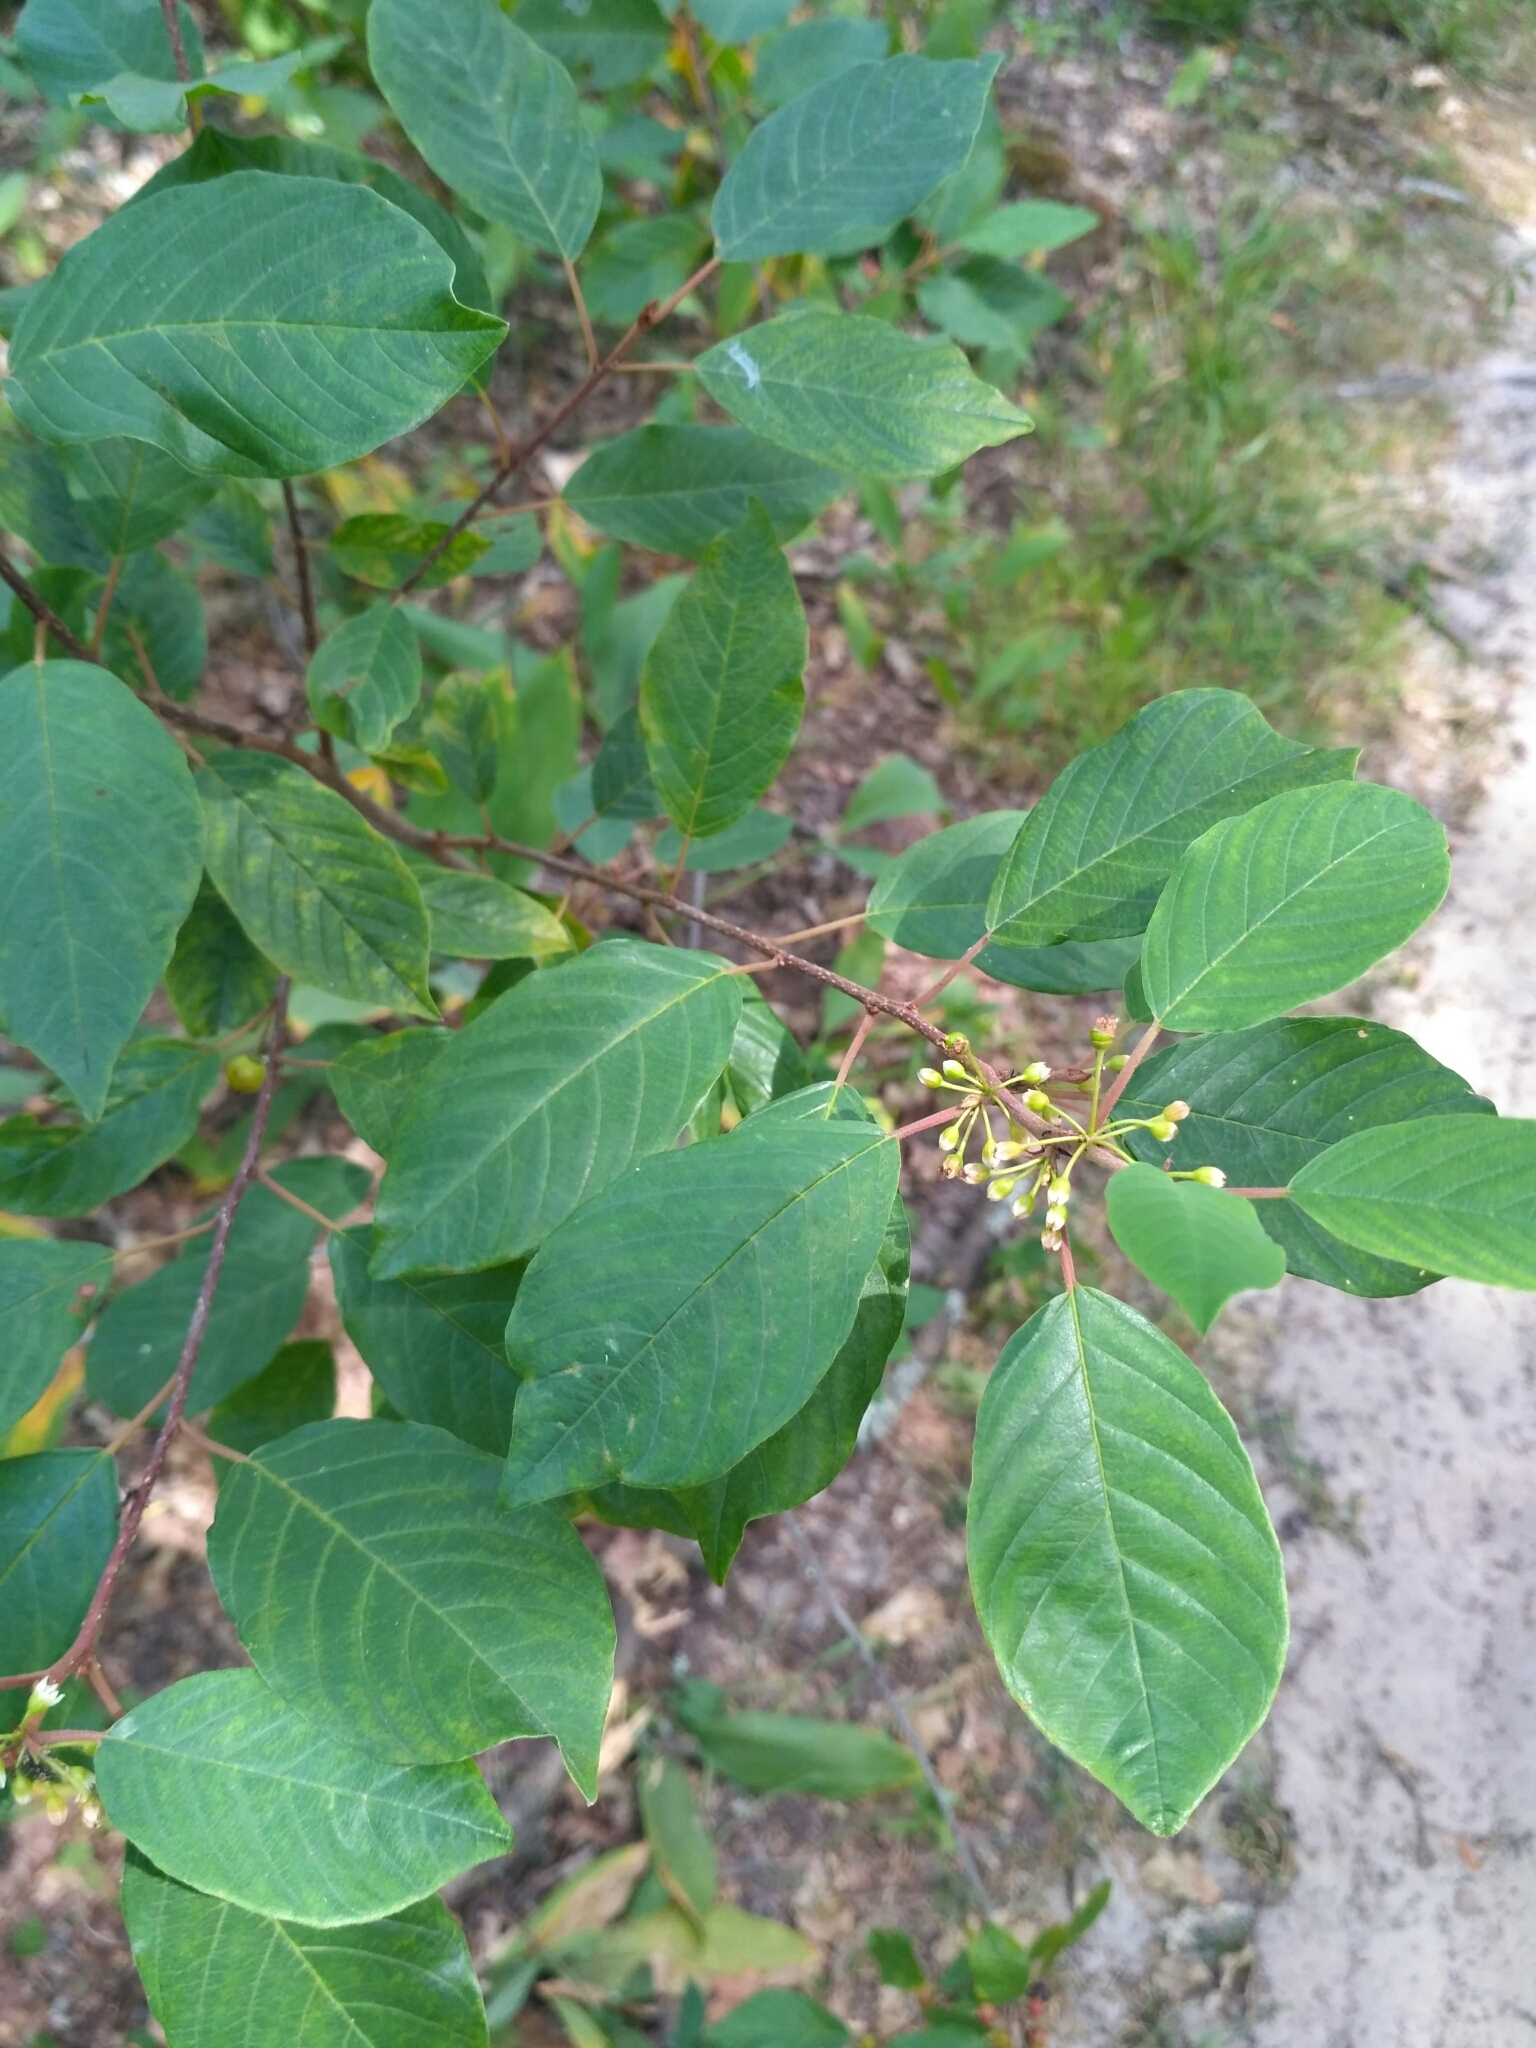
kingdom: Plantae
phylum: Tracheophyta
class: Magnoliopsida
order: Rosales
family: Rhamnaceae
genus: Frangula
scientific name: Frangula alnus
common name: Alder buckthorn
